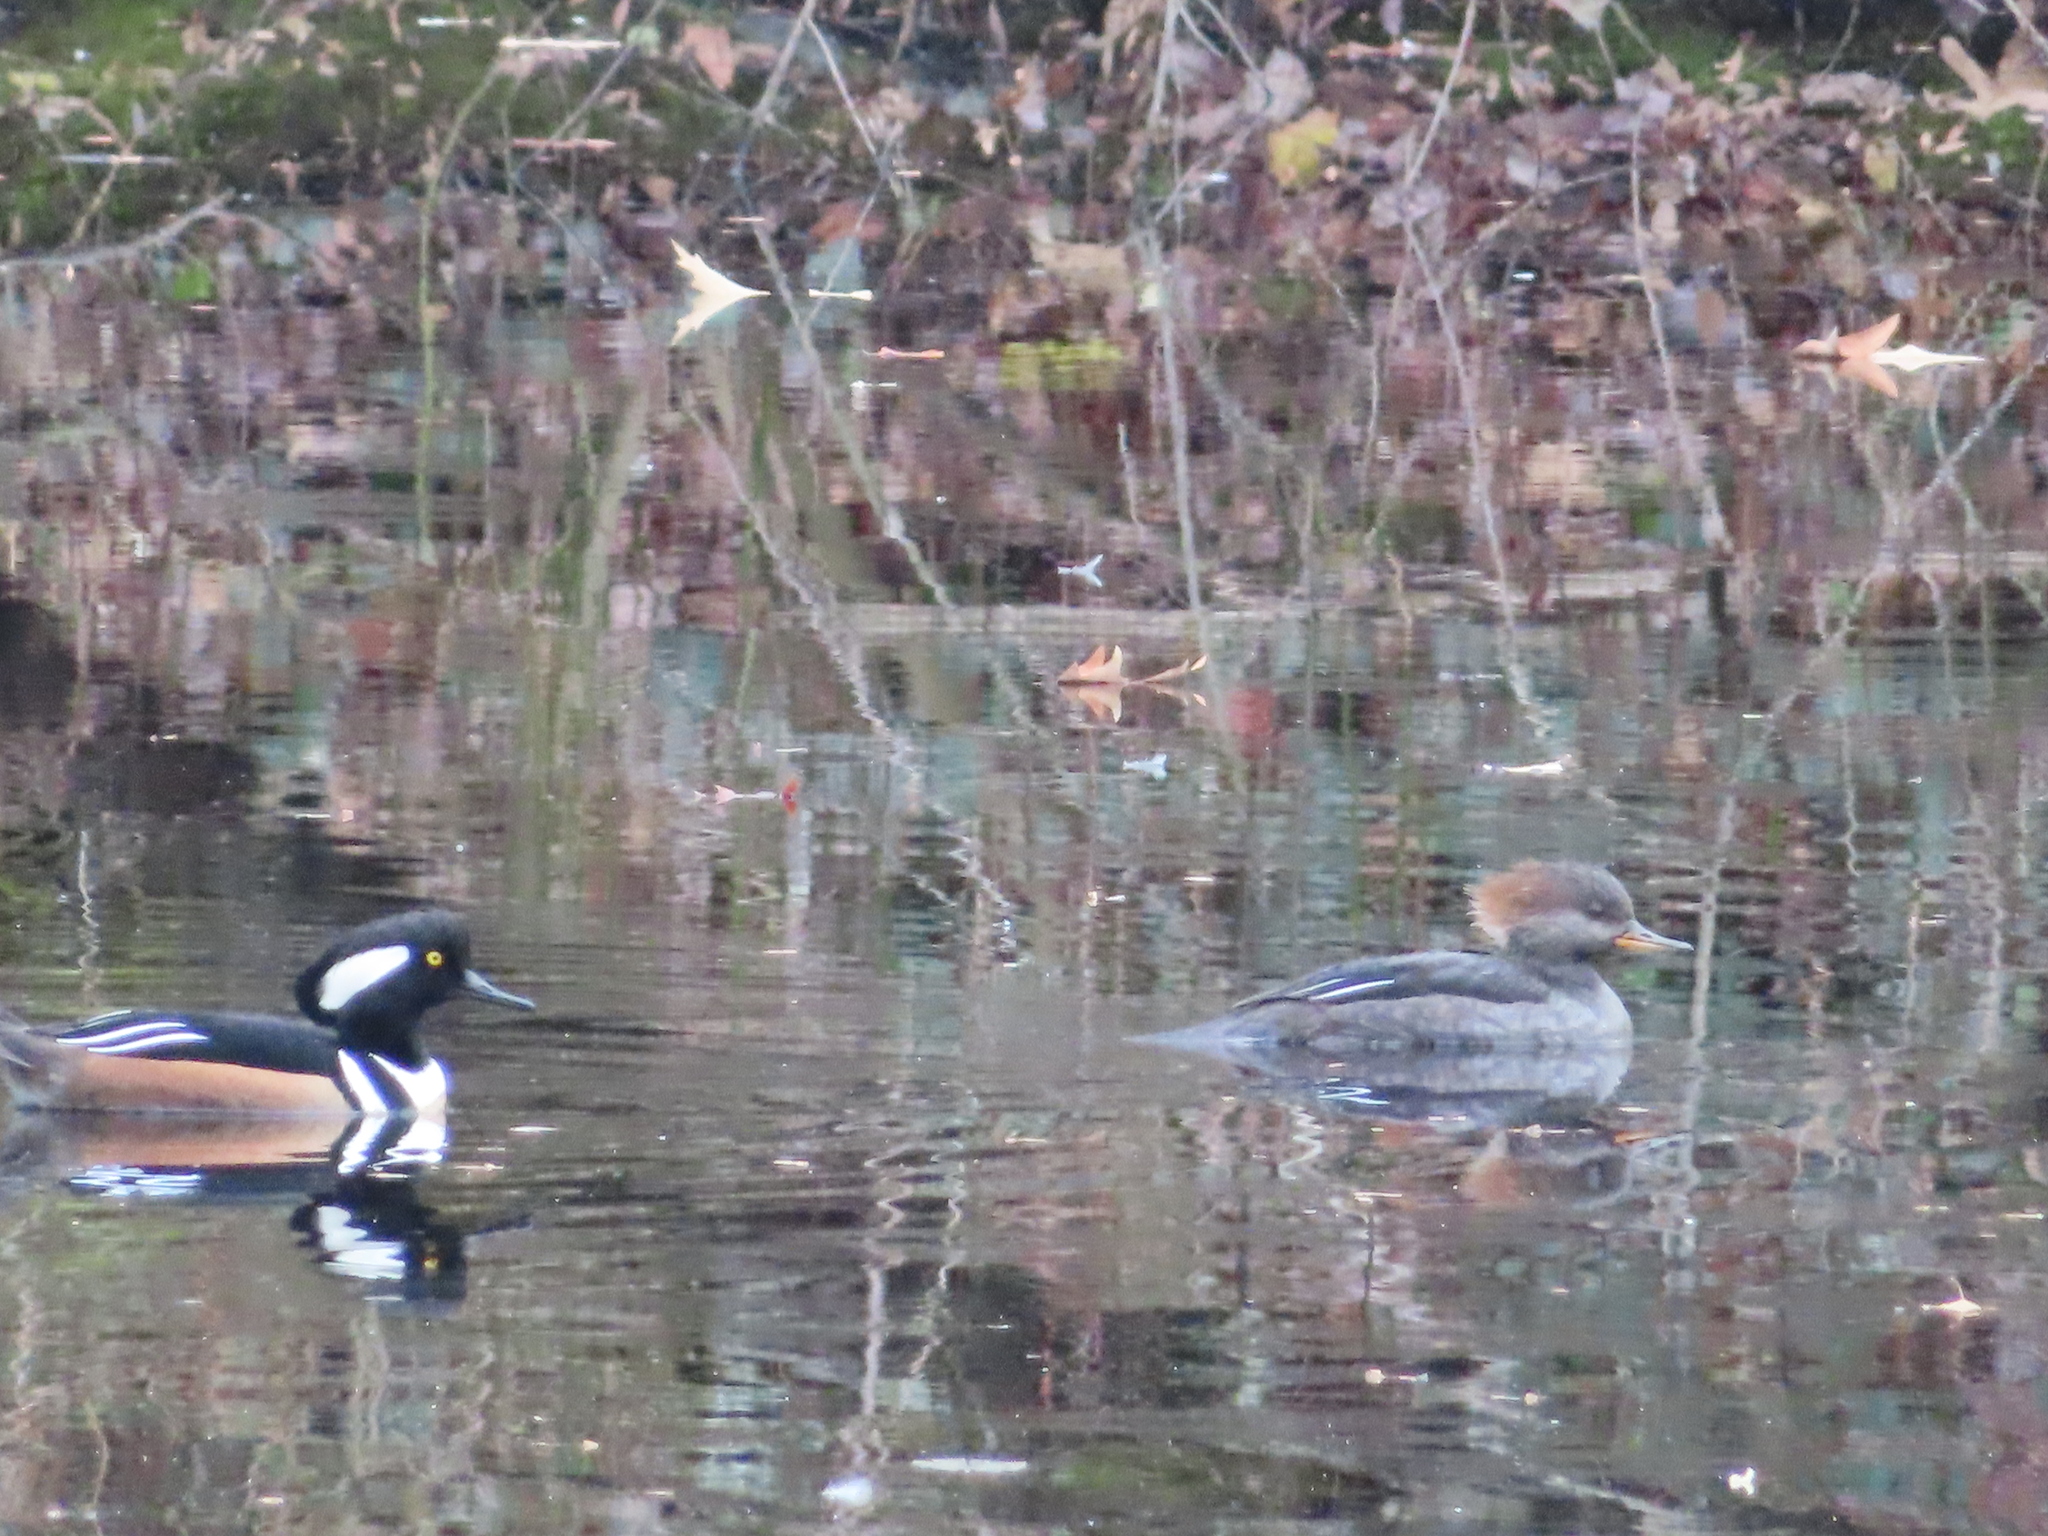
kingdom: Animalia
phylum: Chordata
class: Aves
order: Anseriformes
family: Anatidae
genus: Lophodytes
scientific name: Lophodytes cucullatus
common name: Hooded merganser
